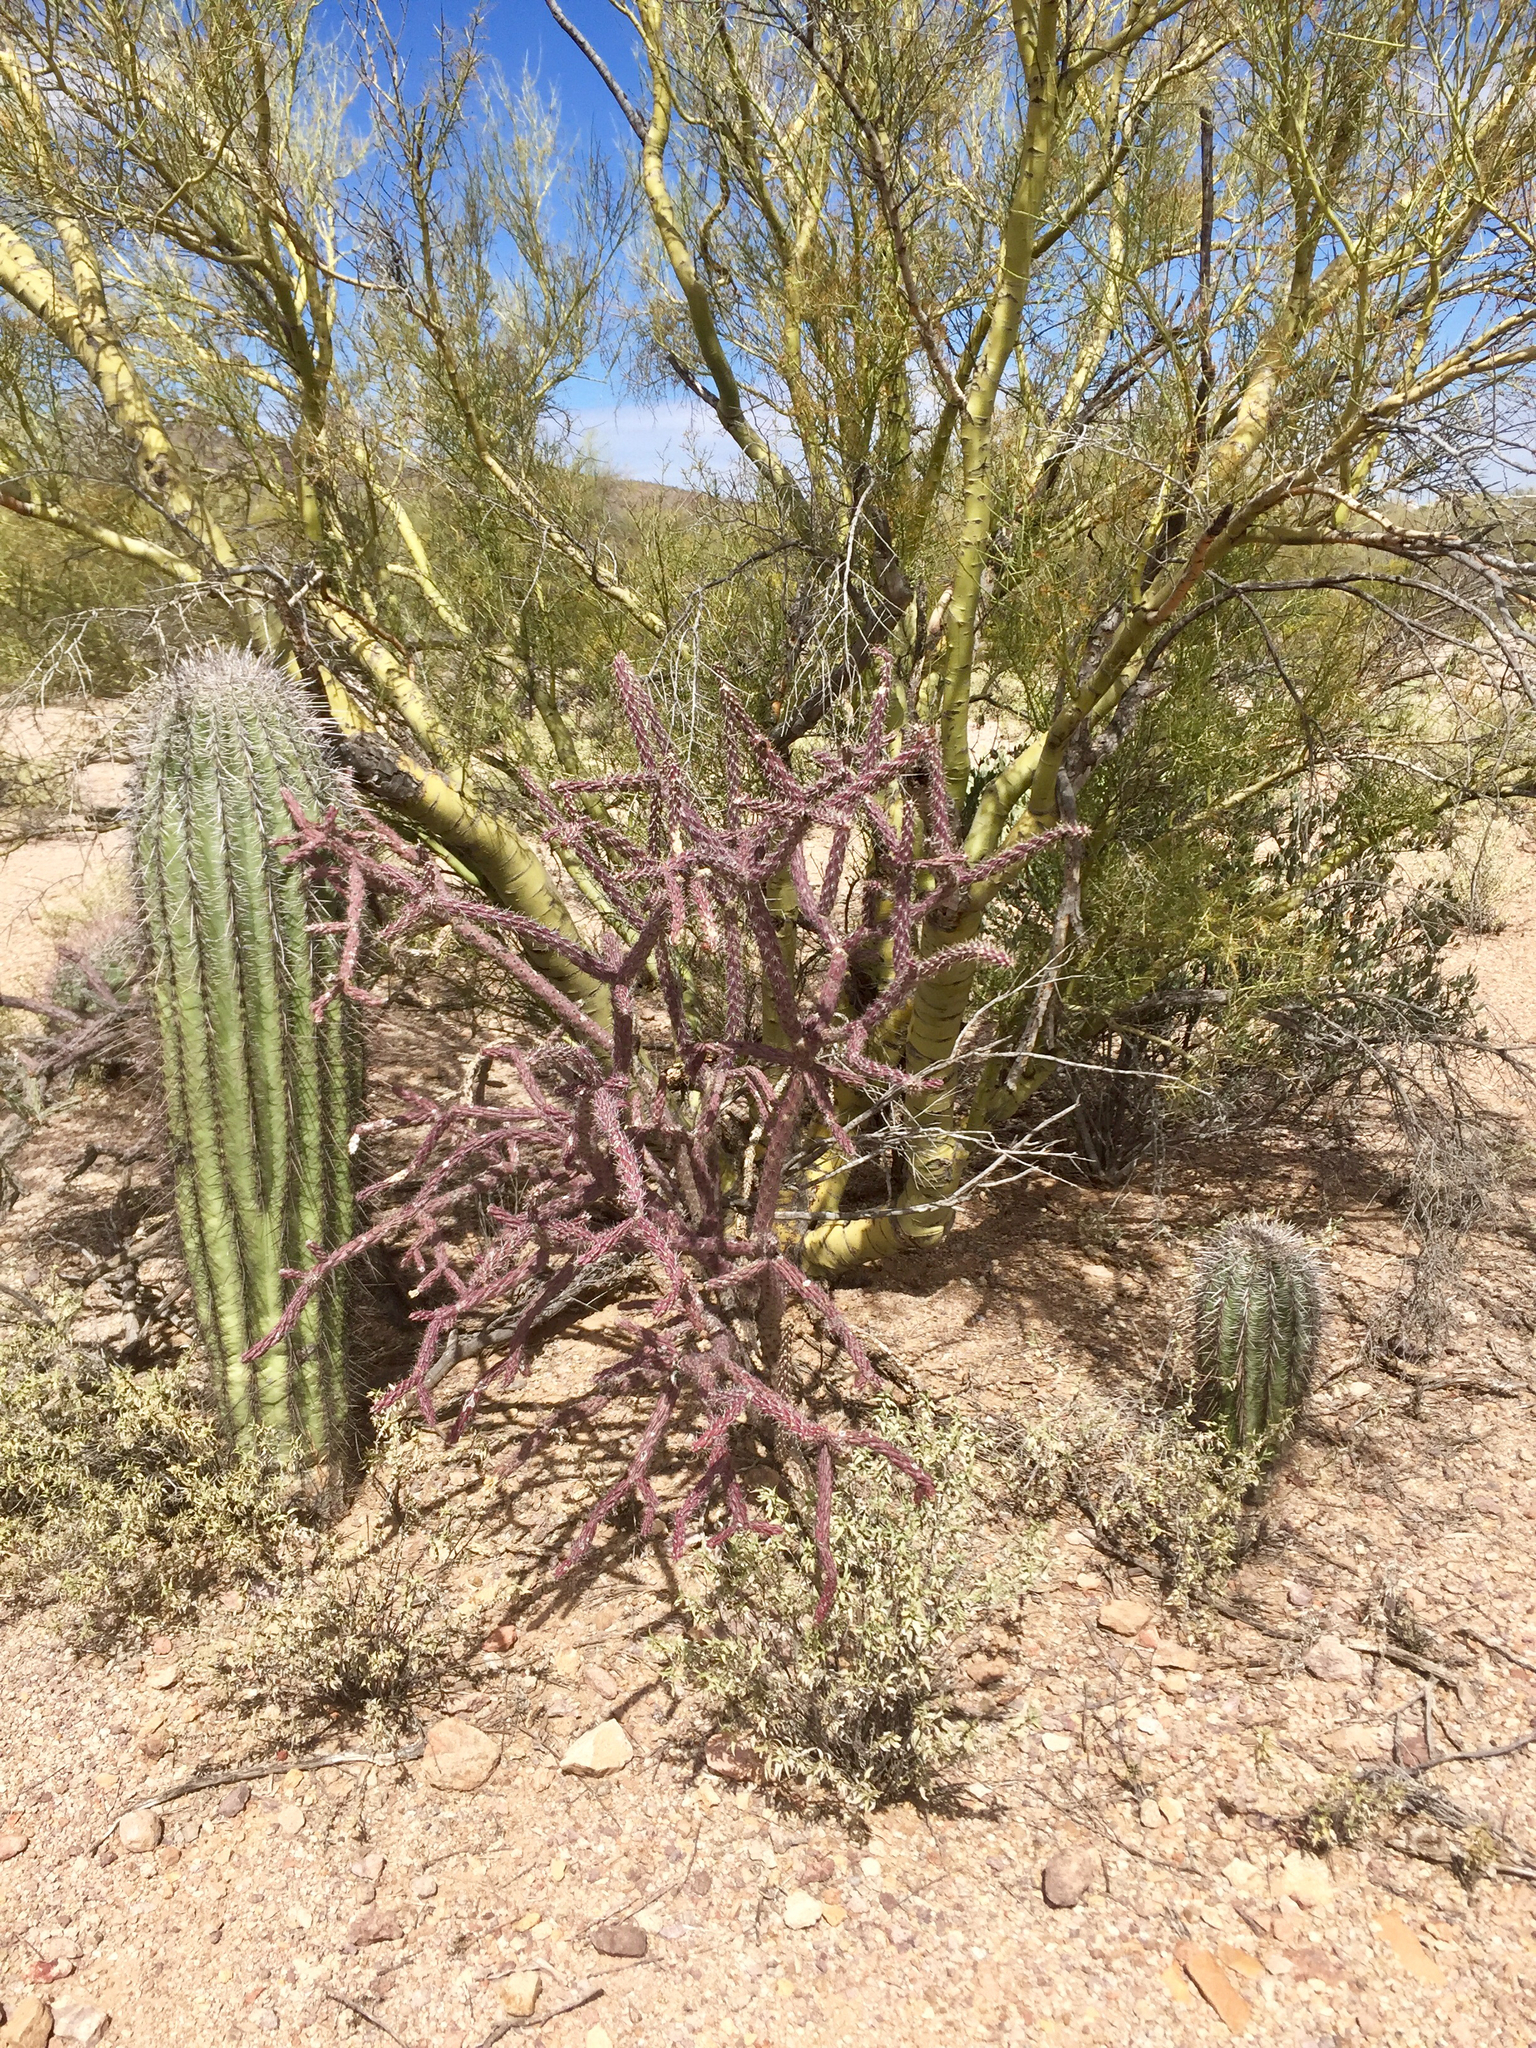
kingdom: Plantae
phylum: Tracheophyta
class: Magnoliopsida
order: Caryophyllales
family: Cactaceae
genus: Carnegiea
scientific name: Carnegiea gigantea
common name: Saguaro
